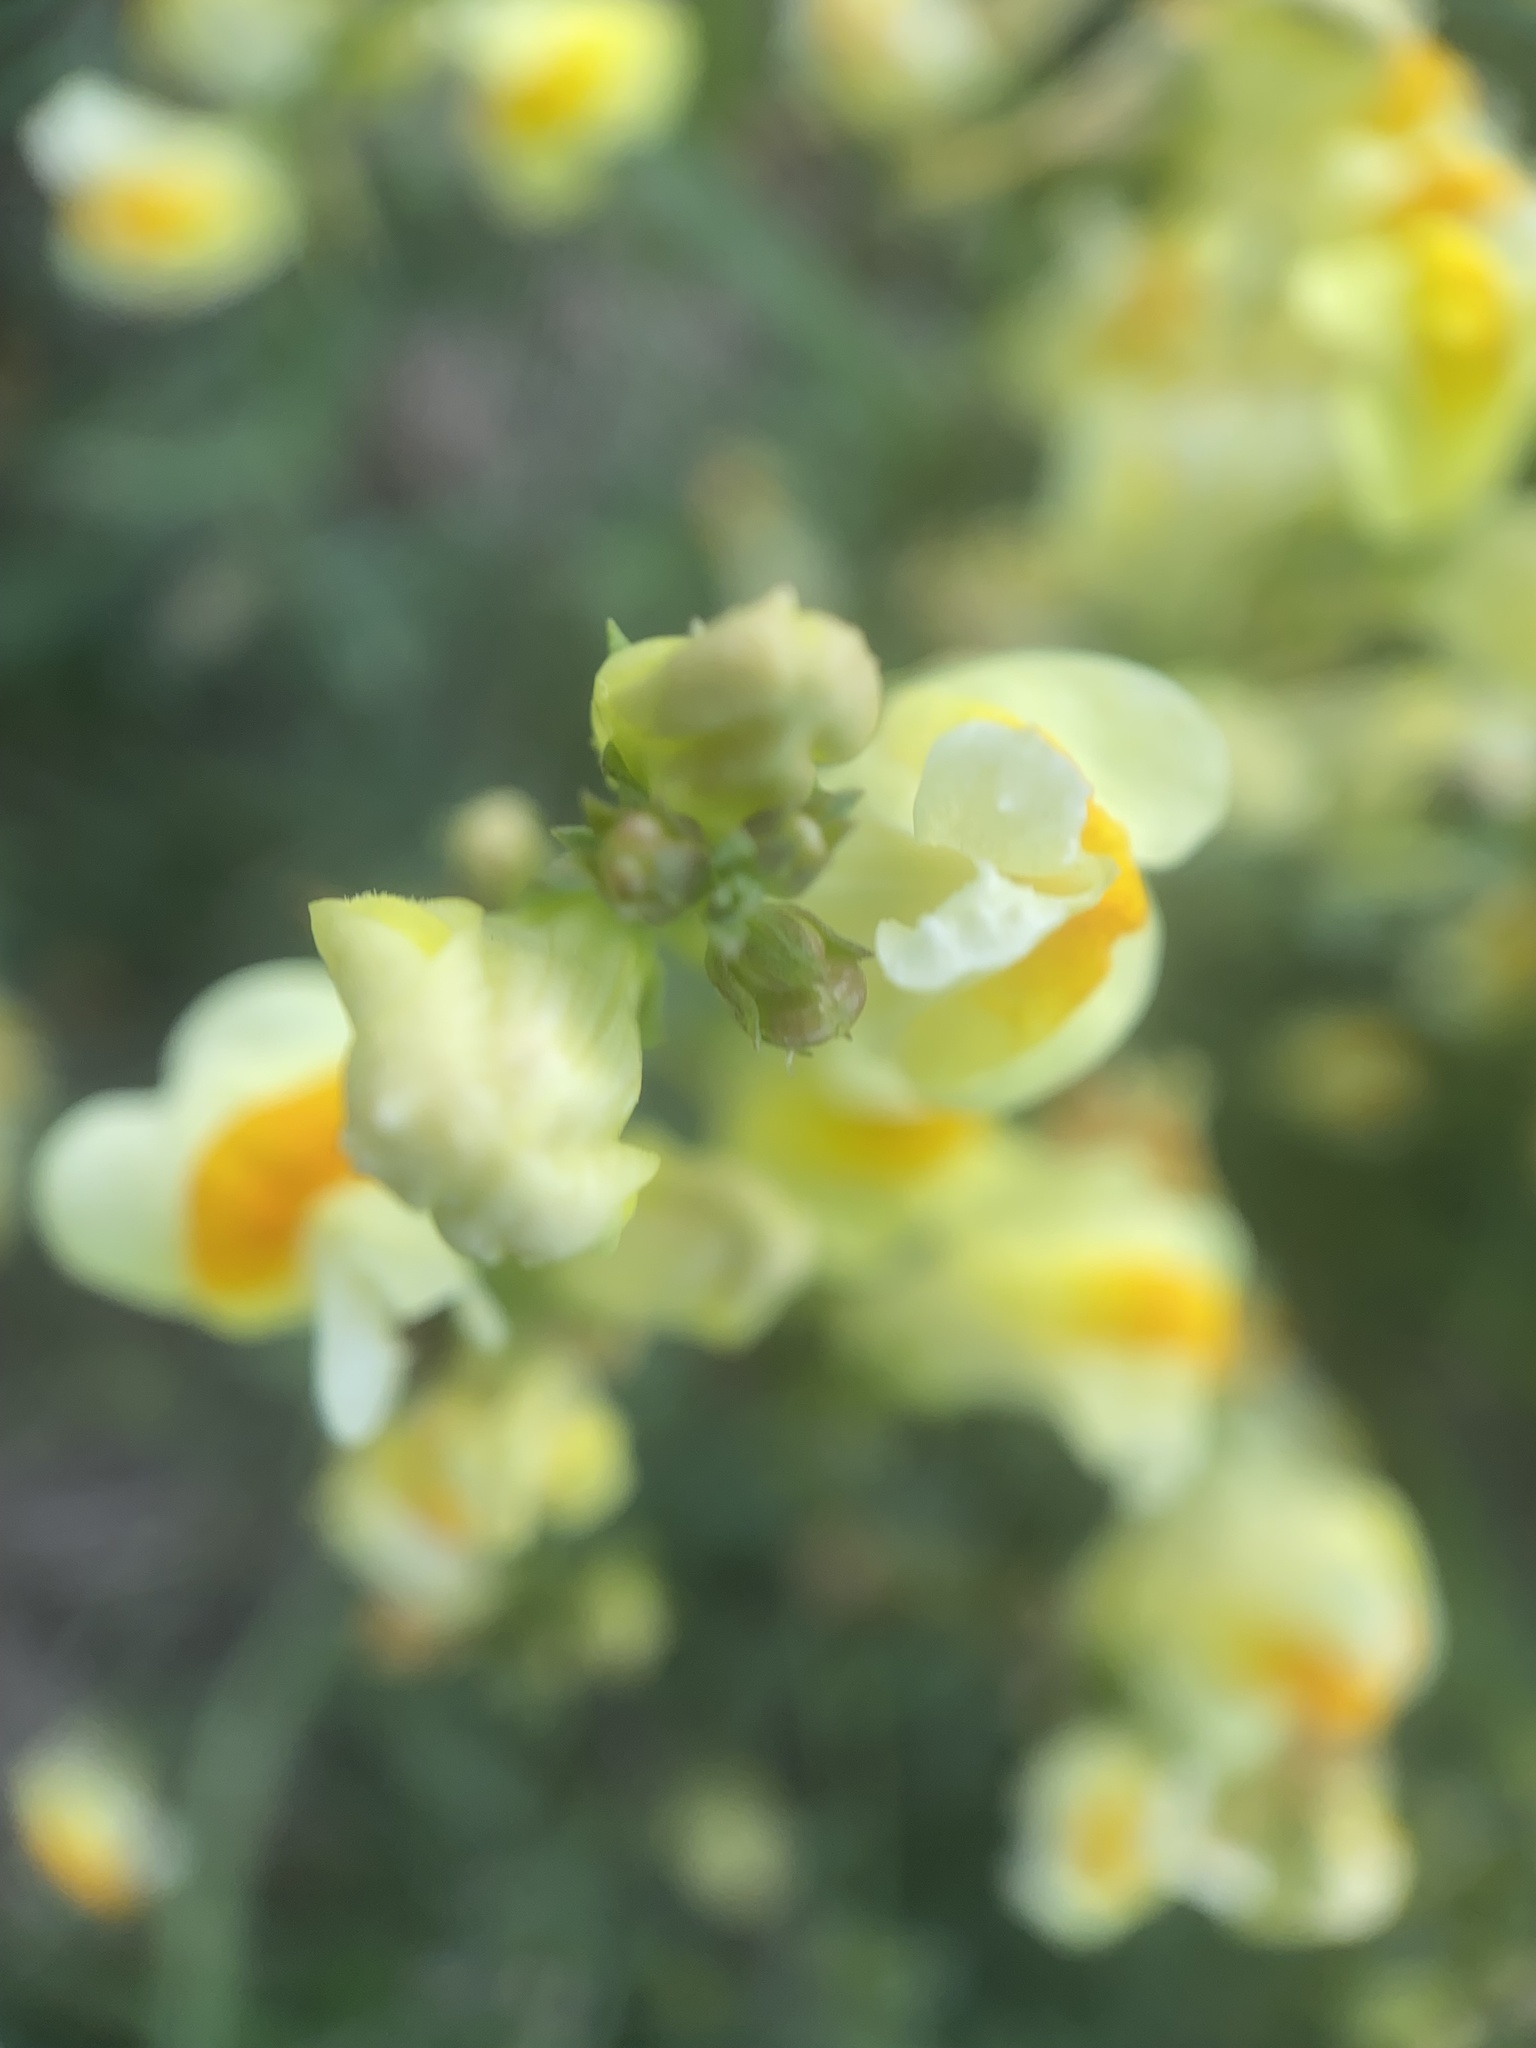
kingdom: Plantae
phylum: Tracheophyta
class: Magnoliopsida
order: Lamiales
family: Plantaginaceae
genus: Linaria
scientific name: Linaria vulgaris
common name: Butter and eggs
